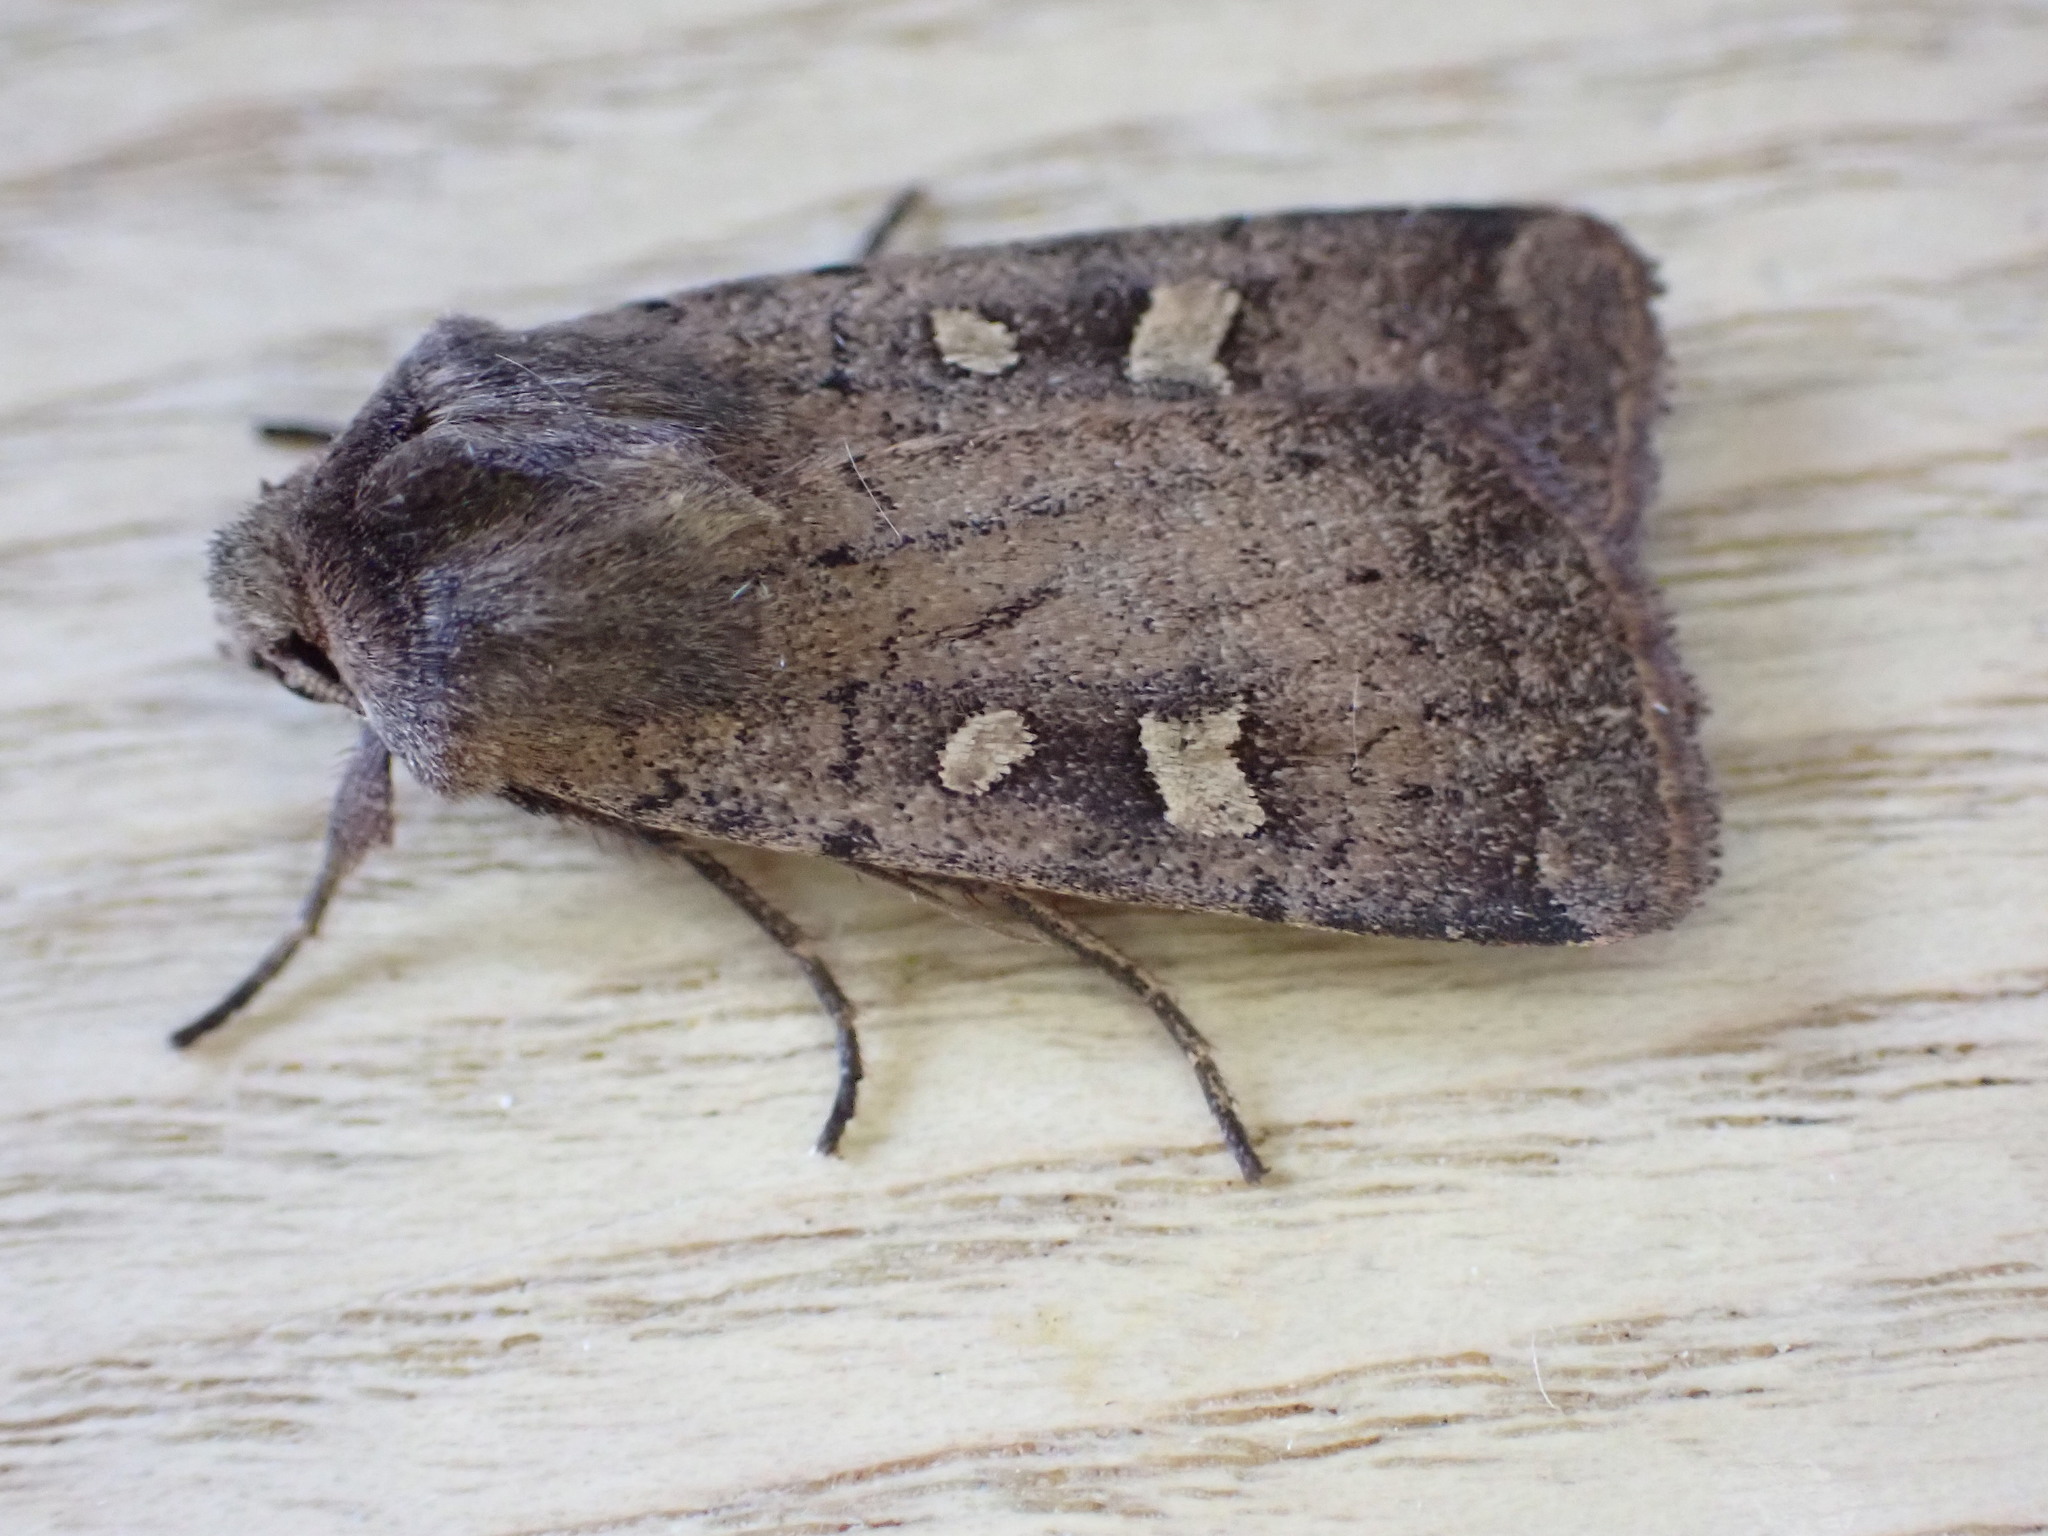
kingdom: Animalia
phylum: Arthropoda
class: Insecta
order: Lepidoptera
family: Noctuidae
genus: Xestia
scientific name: Xestia xanthographa
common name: Square-spot rustic
